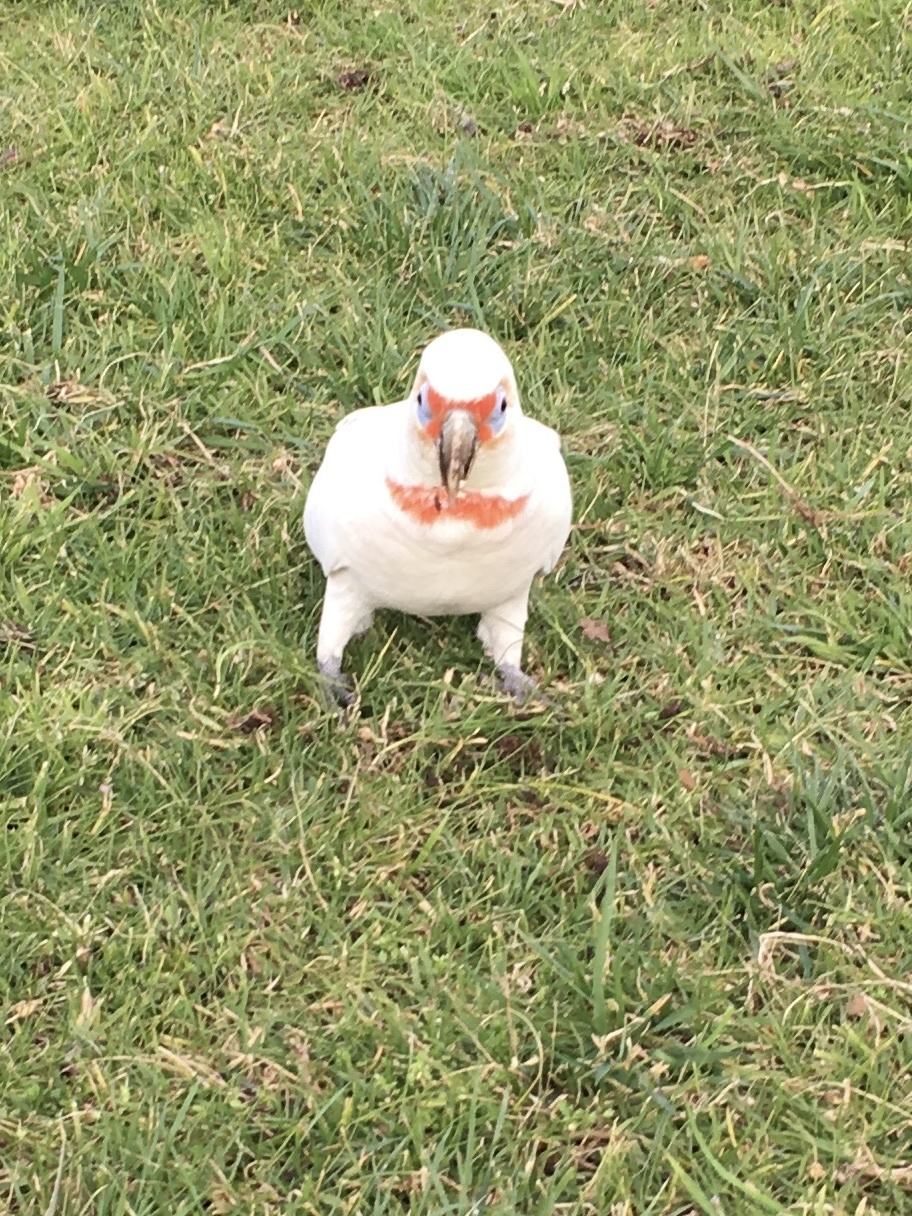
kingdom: Animalia
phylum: Chordata
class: Aves
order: Psittaciformes
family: Psittacidae
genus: Cacatua
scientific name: Cacatua tenuirostris
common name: Long-billed corella
